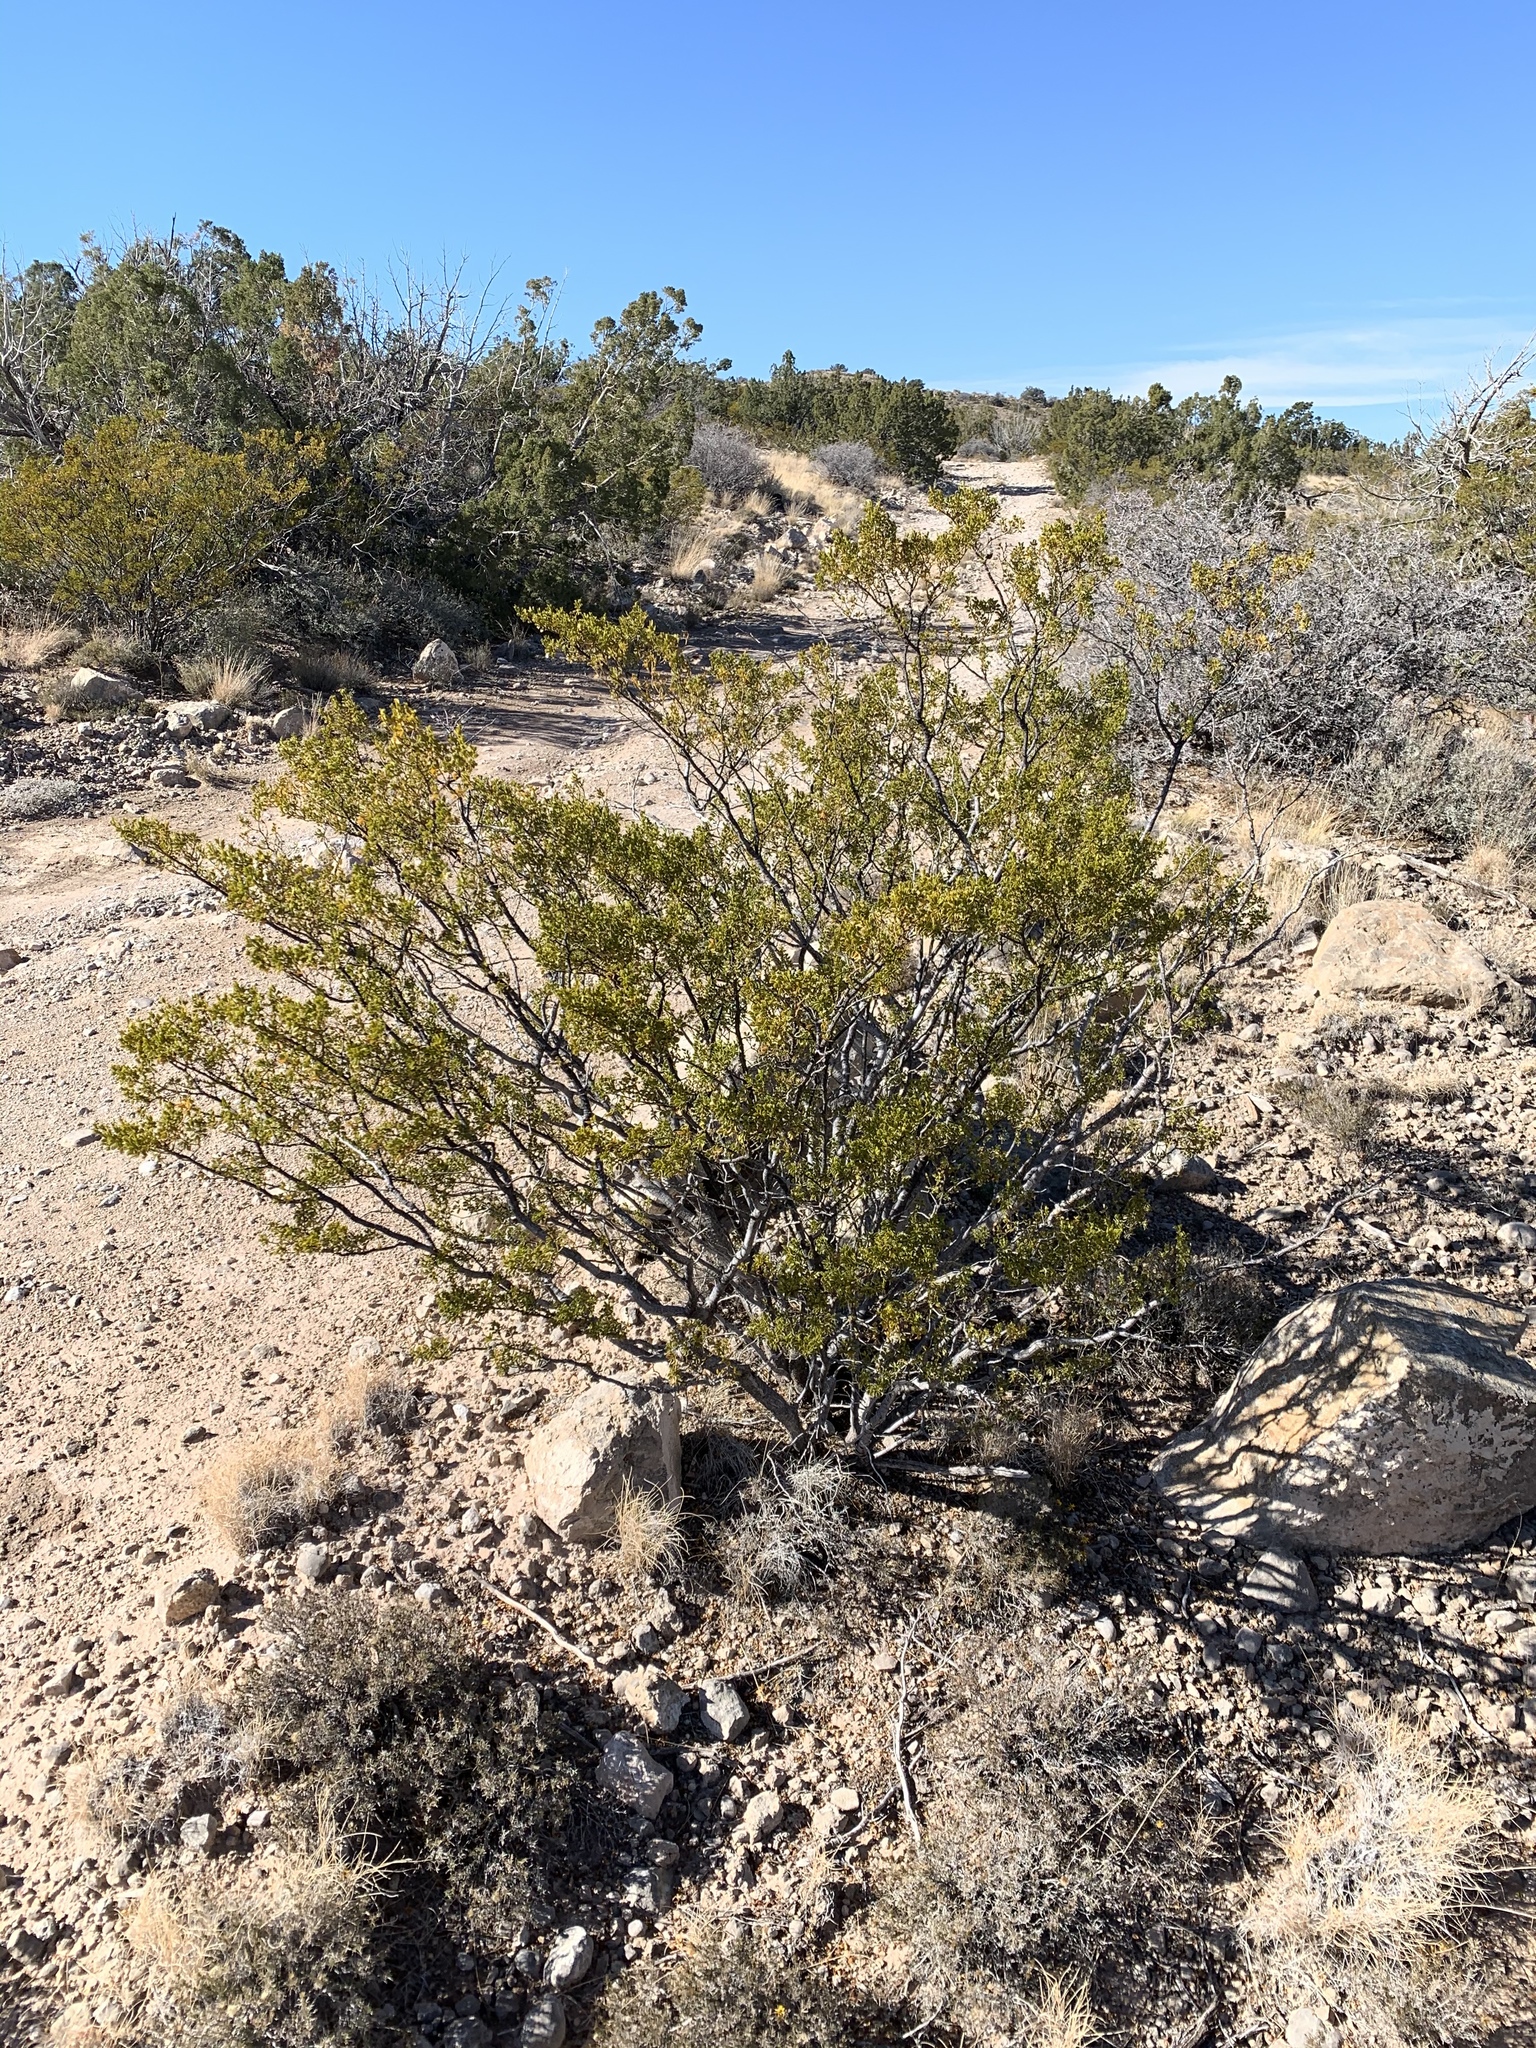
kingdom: Plantae
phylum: Tracheophyta
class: Magnoliopsida
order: Zygophyllales
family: Zygophyllaceae
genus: Larrea
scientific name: Larrea tridentata
